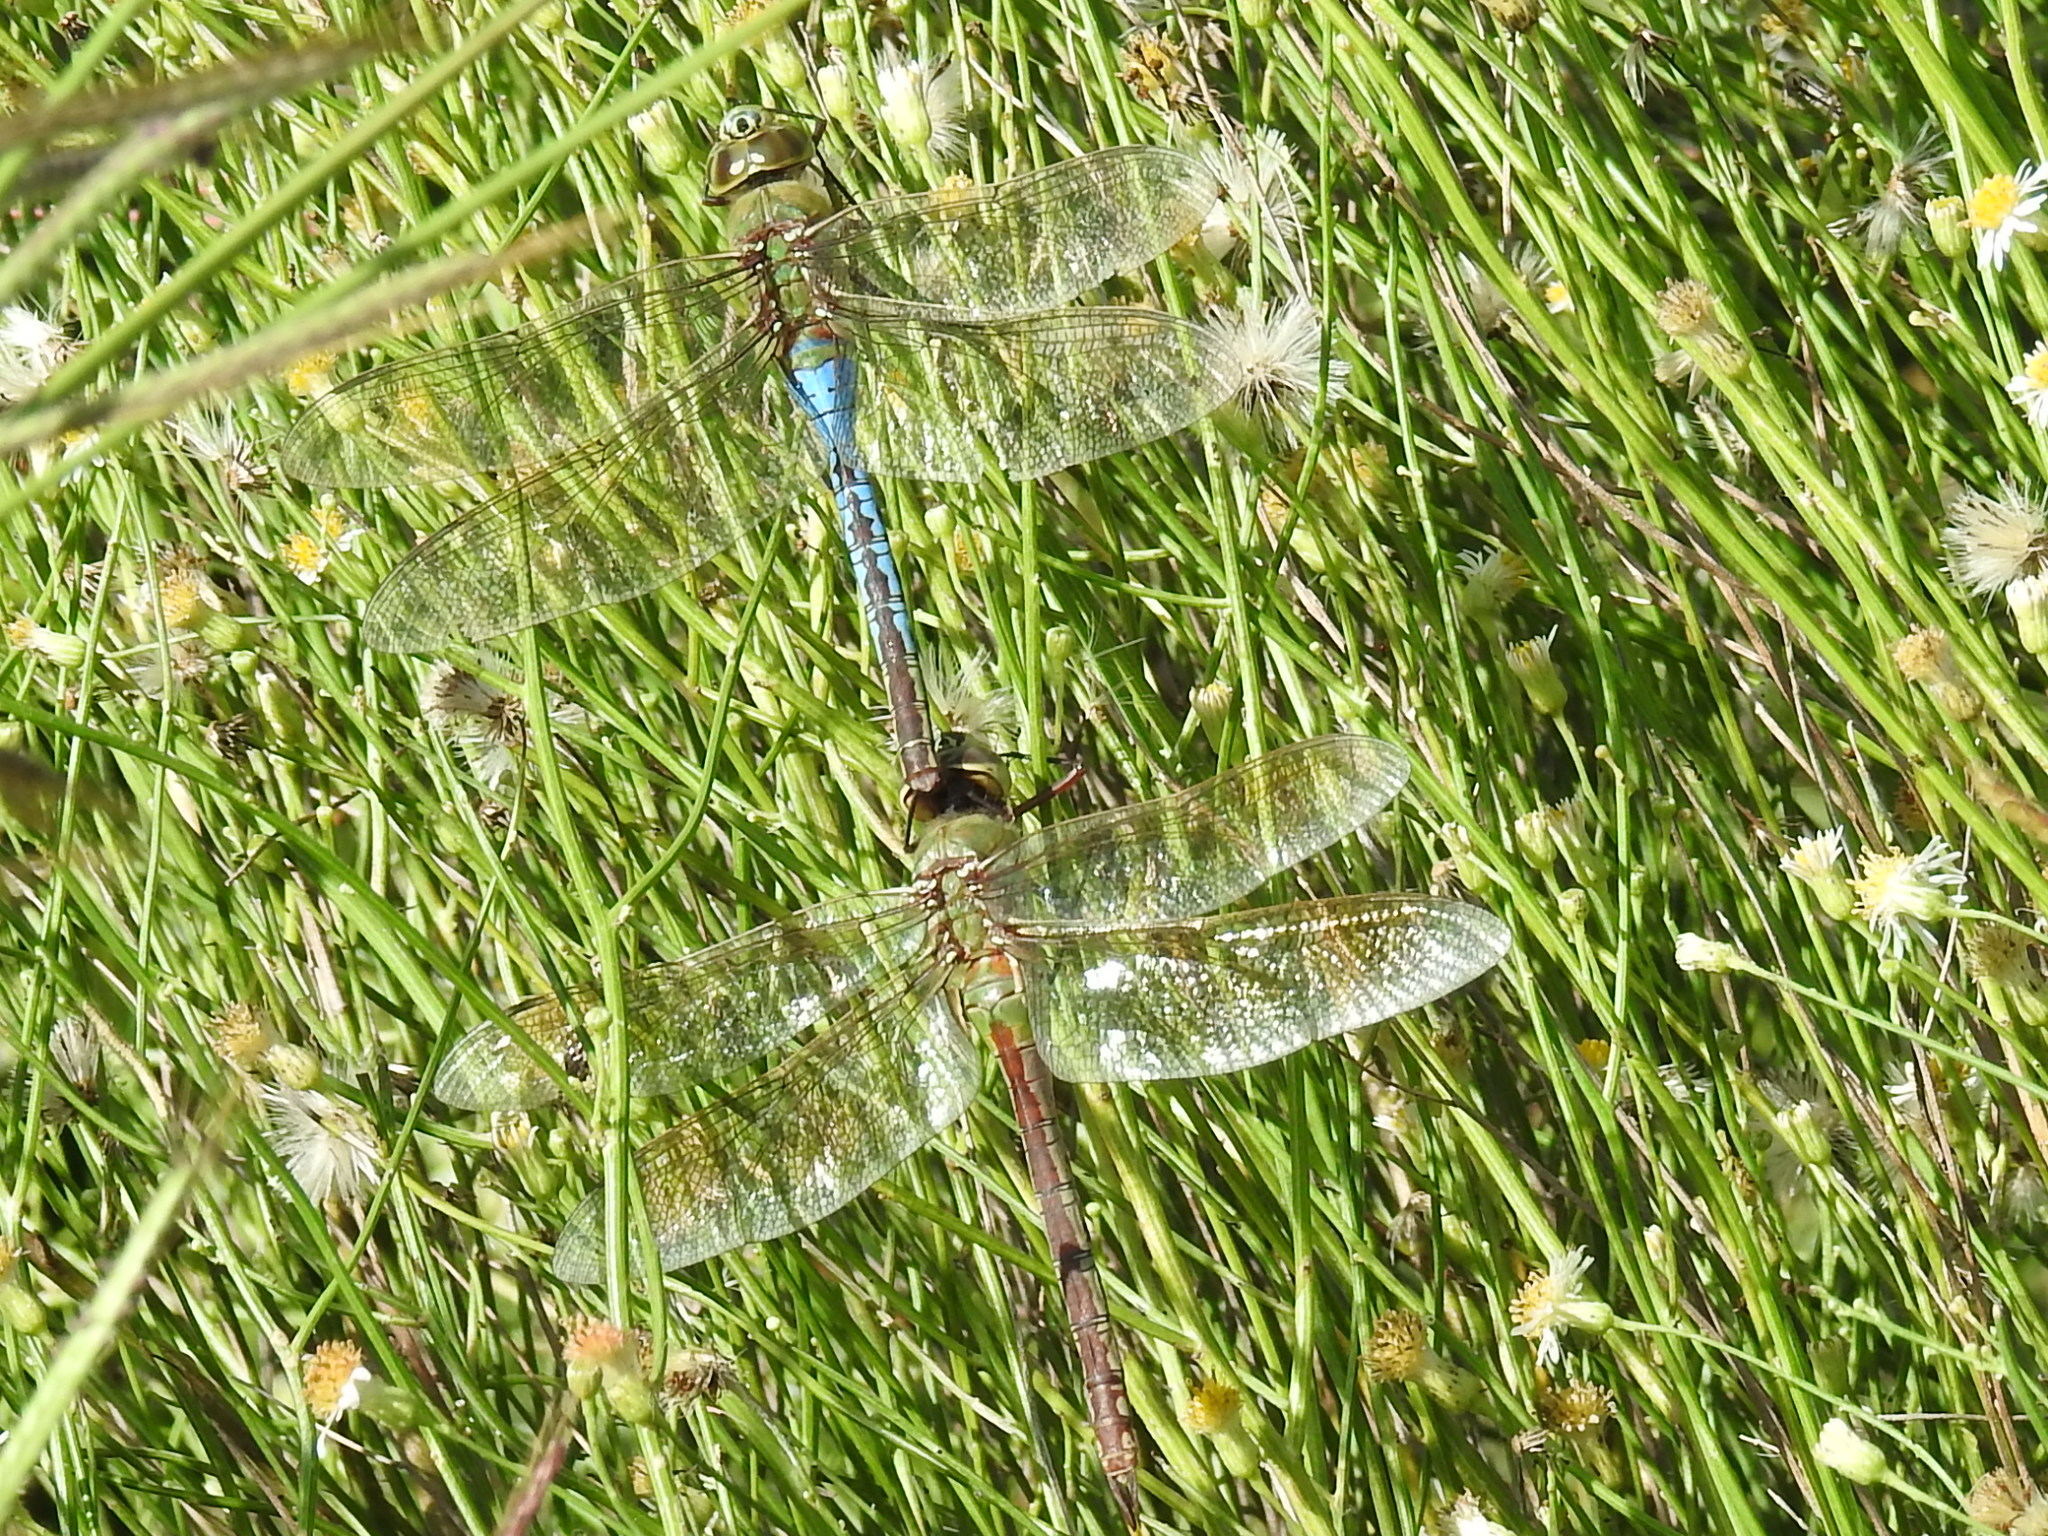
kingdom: Animalia
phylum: Arthropoda
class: Insecta
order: Odonata
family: Aeshnidae
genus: Anax
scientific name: Anax junius
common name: Common green darner
